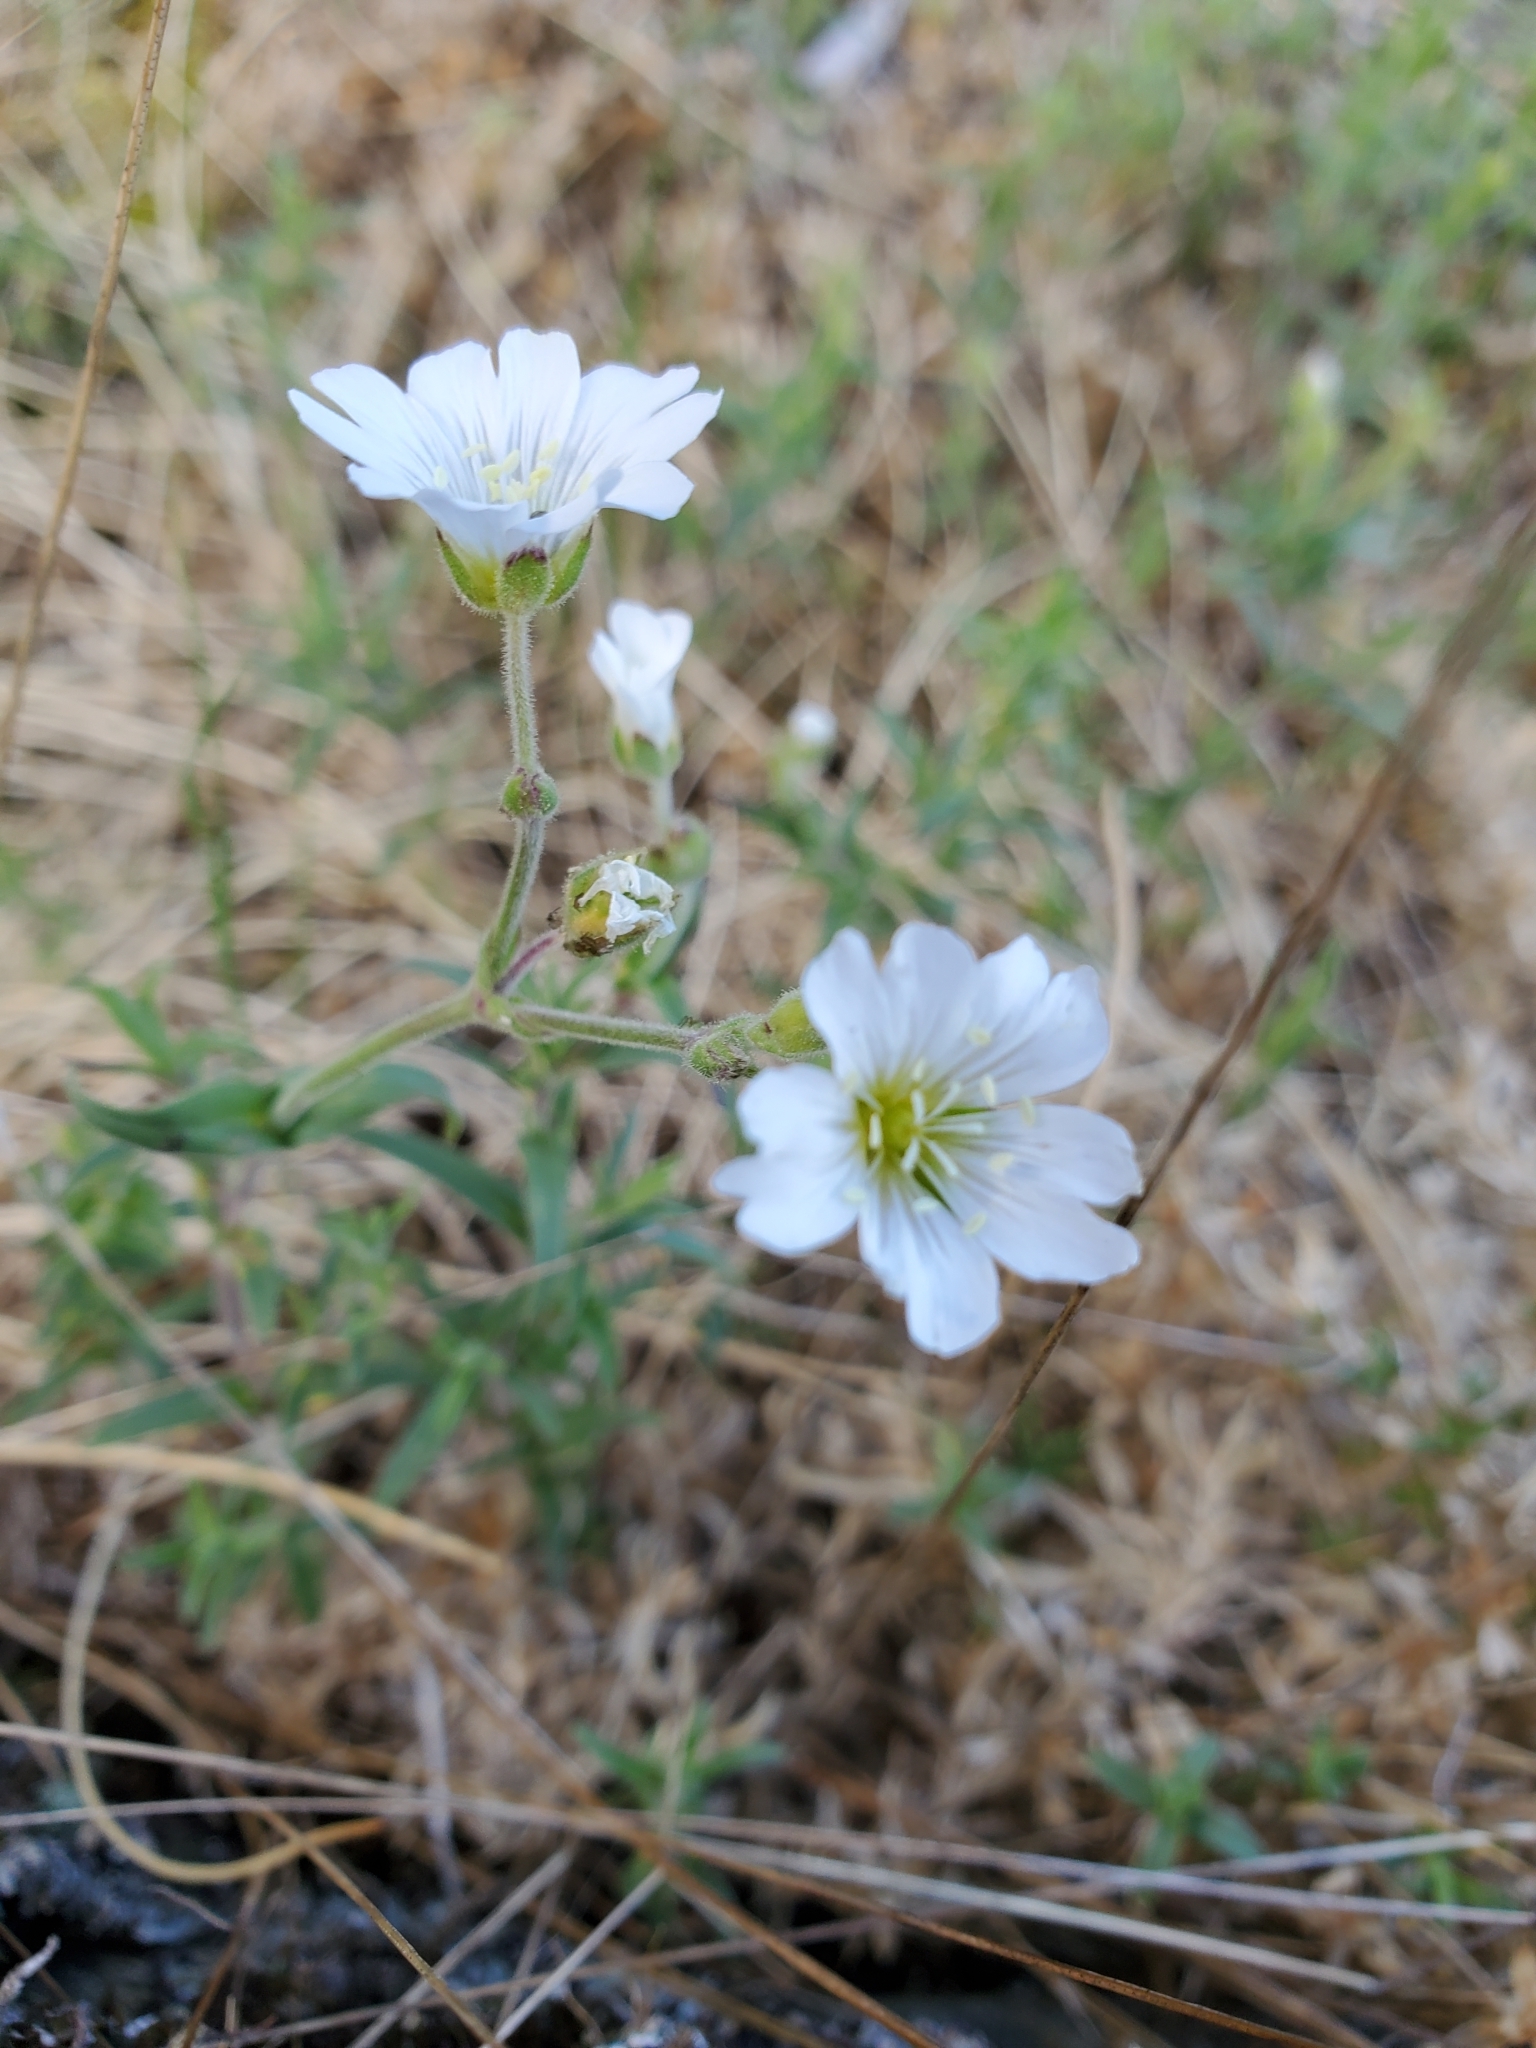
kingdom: Plantae
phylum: Tracheophyta
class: Magnoliopsida
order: Caryophyllales
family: Caryophyllaceae
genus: Cerastium
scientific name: Cerastium arvense
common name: Field mouse-ear
